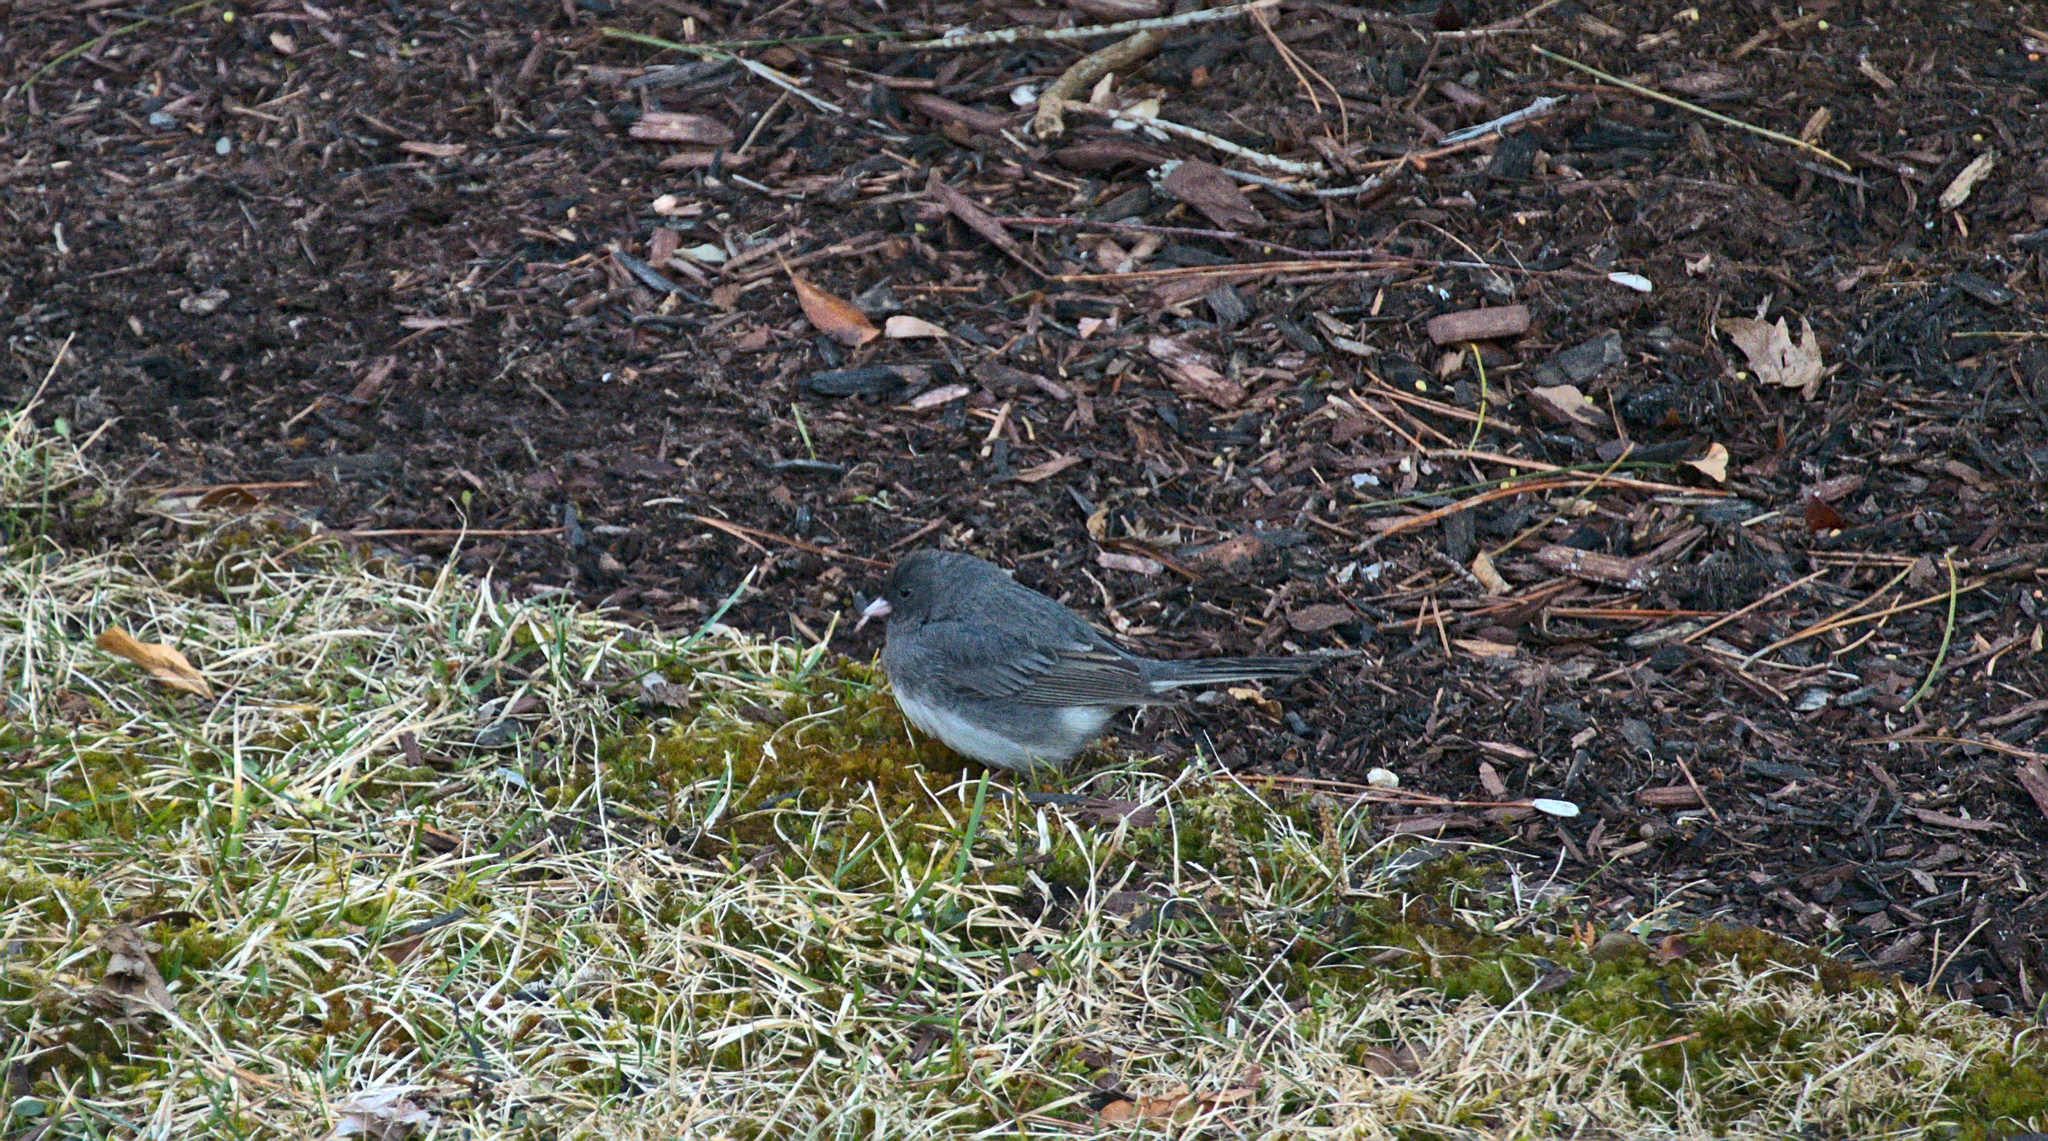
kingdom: Animalia
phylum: Chordata
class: Aves
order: Passeriformes
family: Passerellidae
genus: Junco
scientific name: Junco hyemalis
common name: Dark-eyed junco
